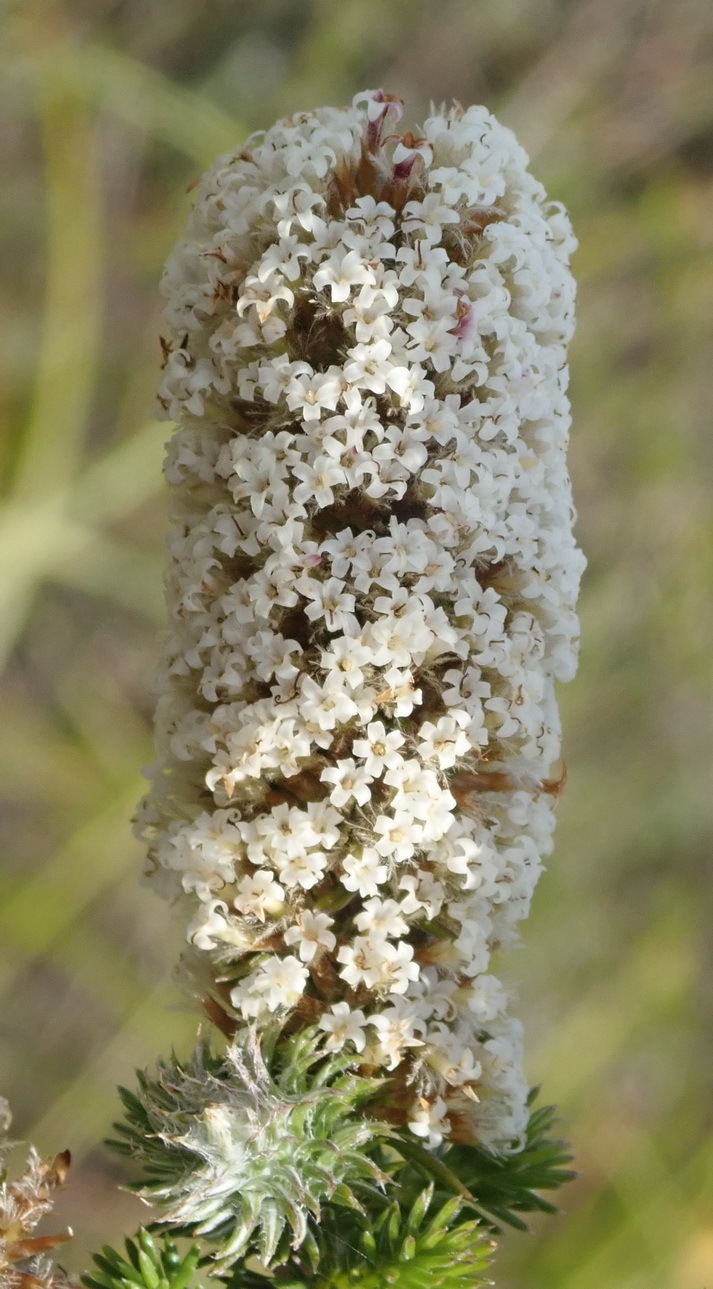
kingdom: Plantae
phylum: Tracheophyta
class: Magnoliopsida
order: Asterales
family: Asteraceae
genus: Stoebe
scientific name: Stoebe alopecuroides
